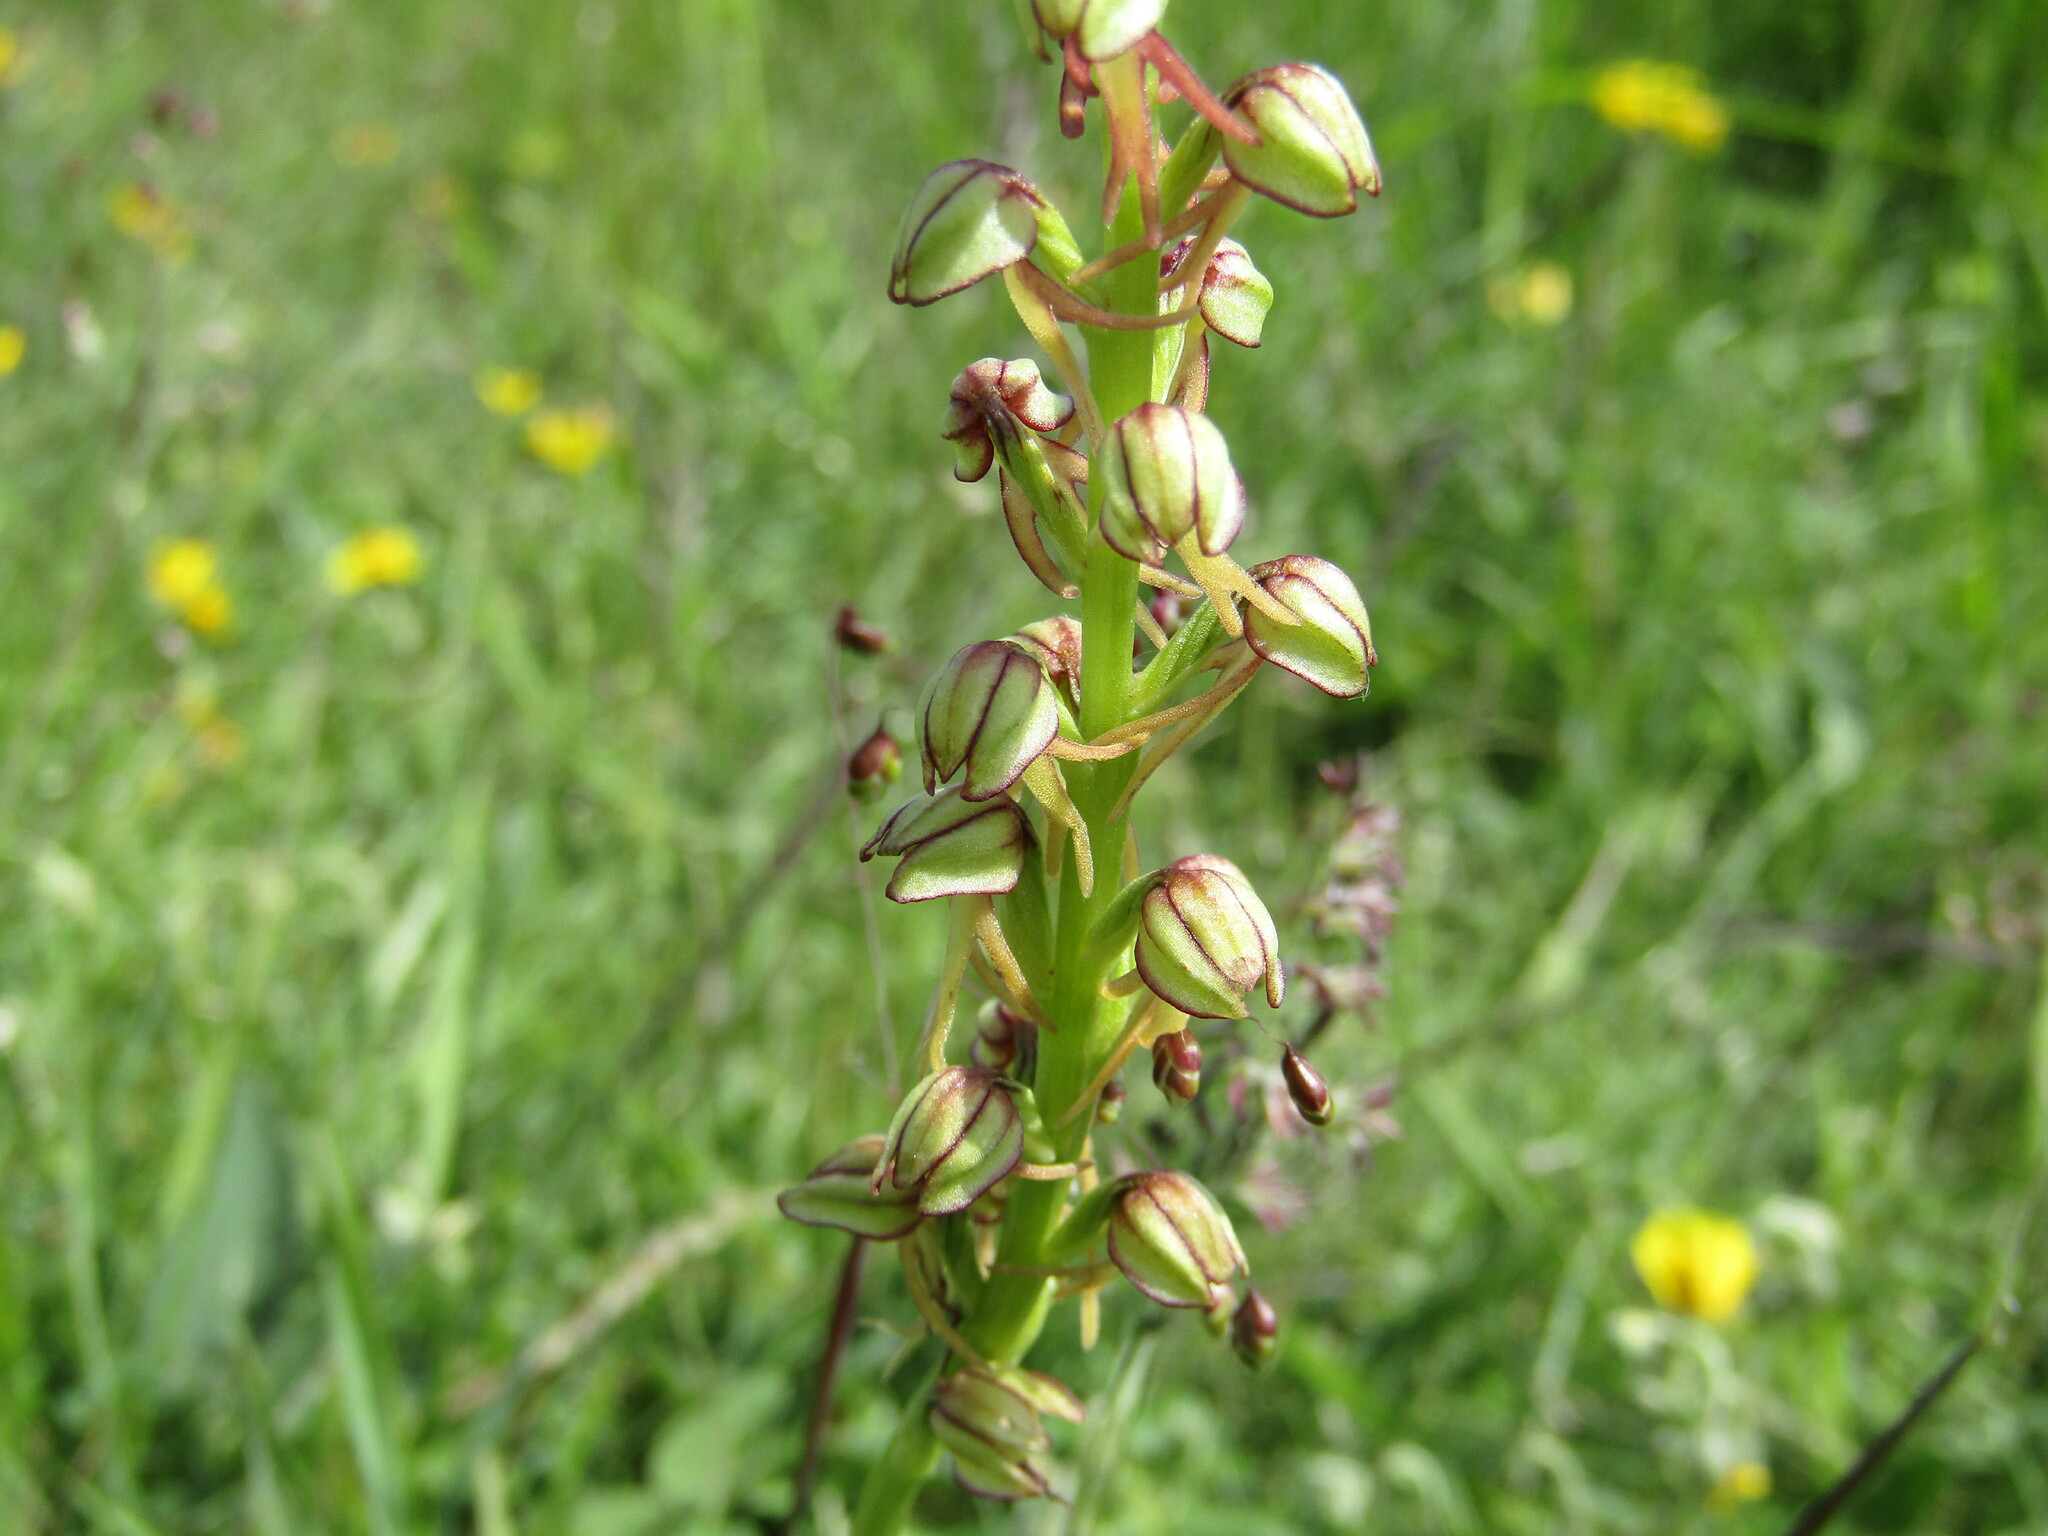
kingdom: Plantae
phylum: Tracheophyta
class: Liliopsida
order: Asparagales
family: Orchidaceae
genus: Orchis
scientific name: Orchis anthropophora
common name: Man orchid
